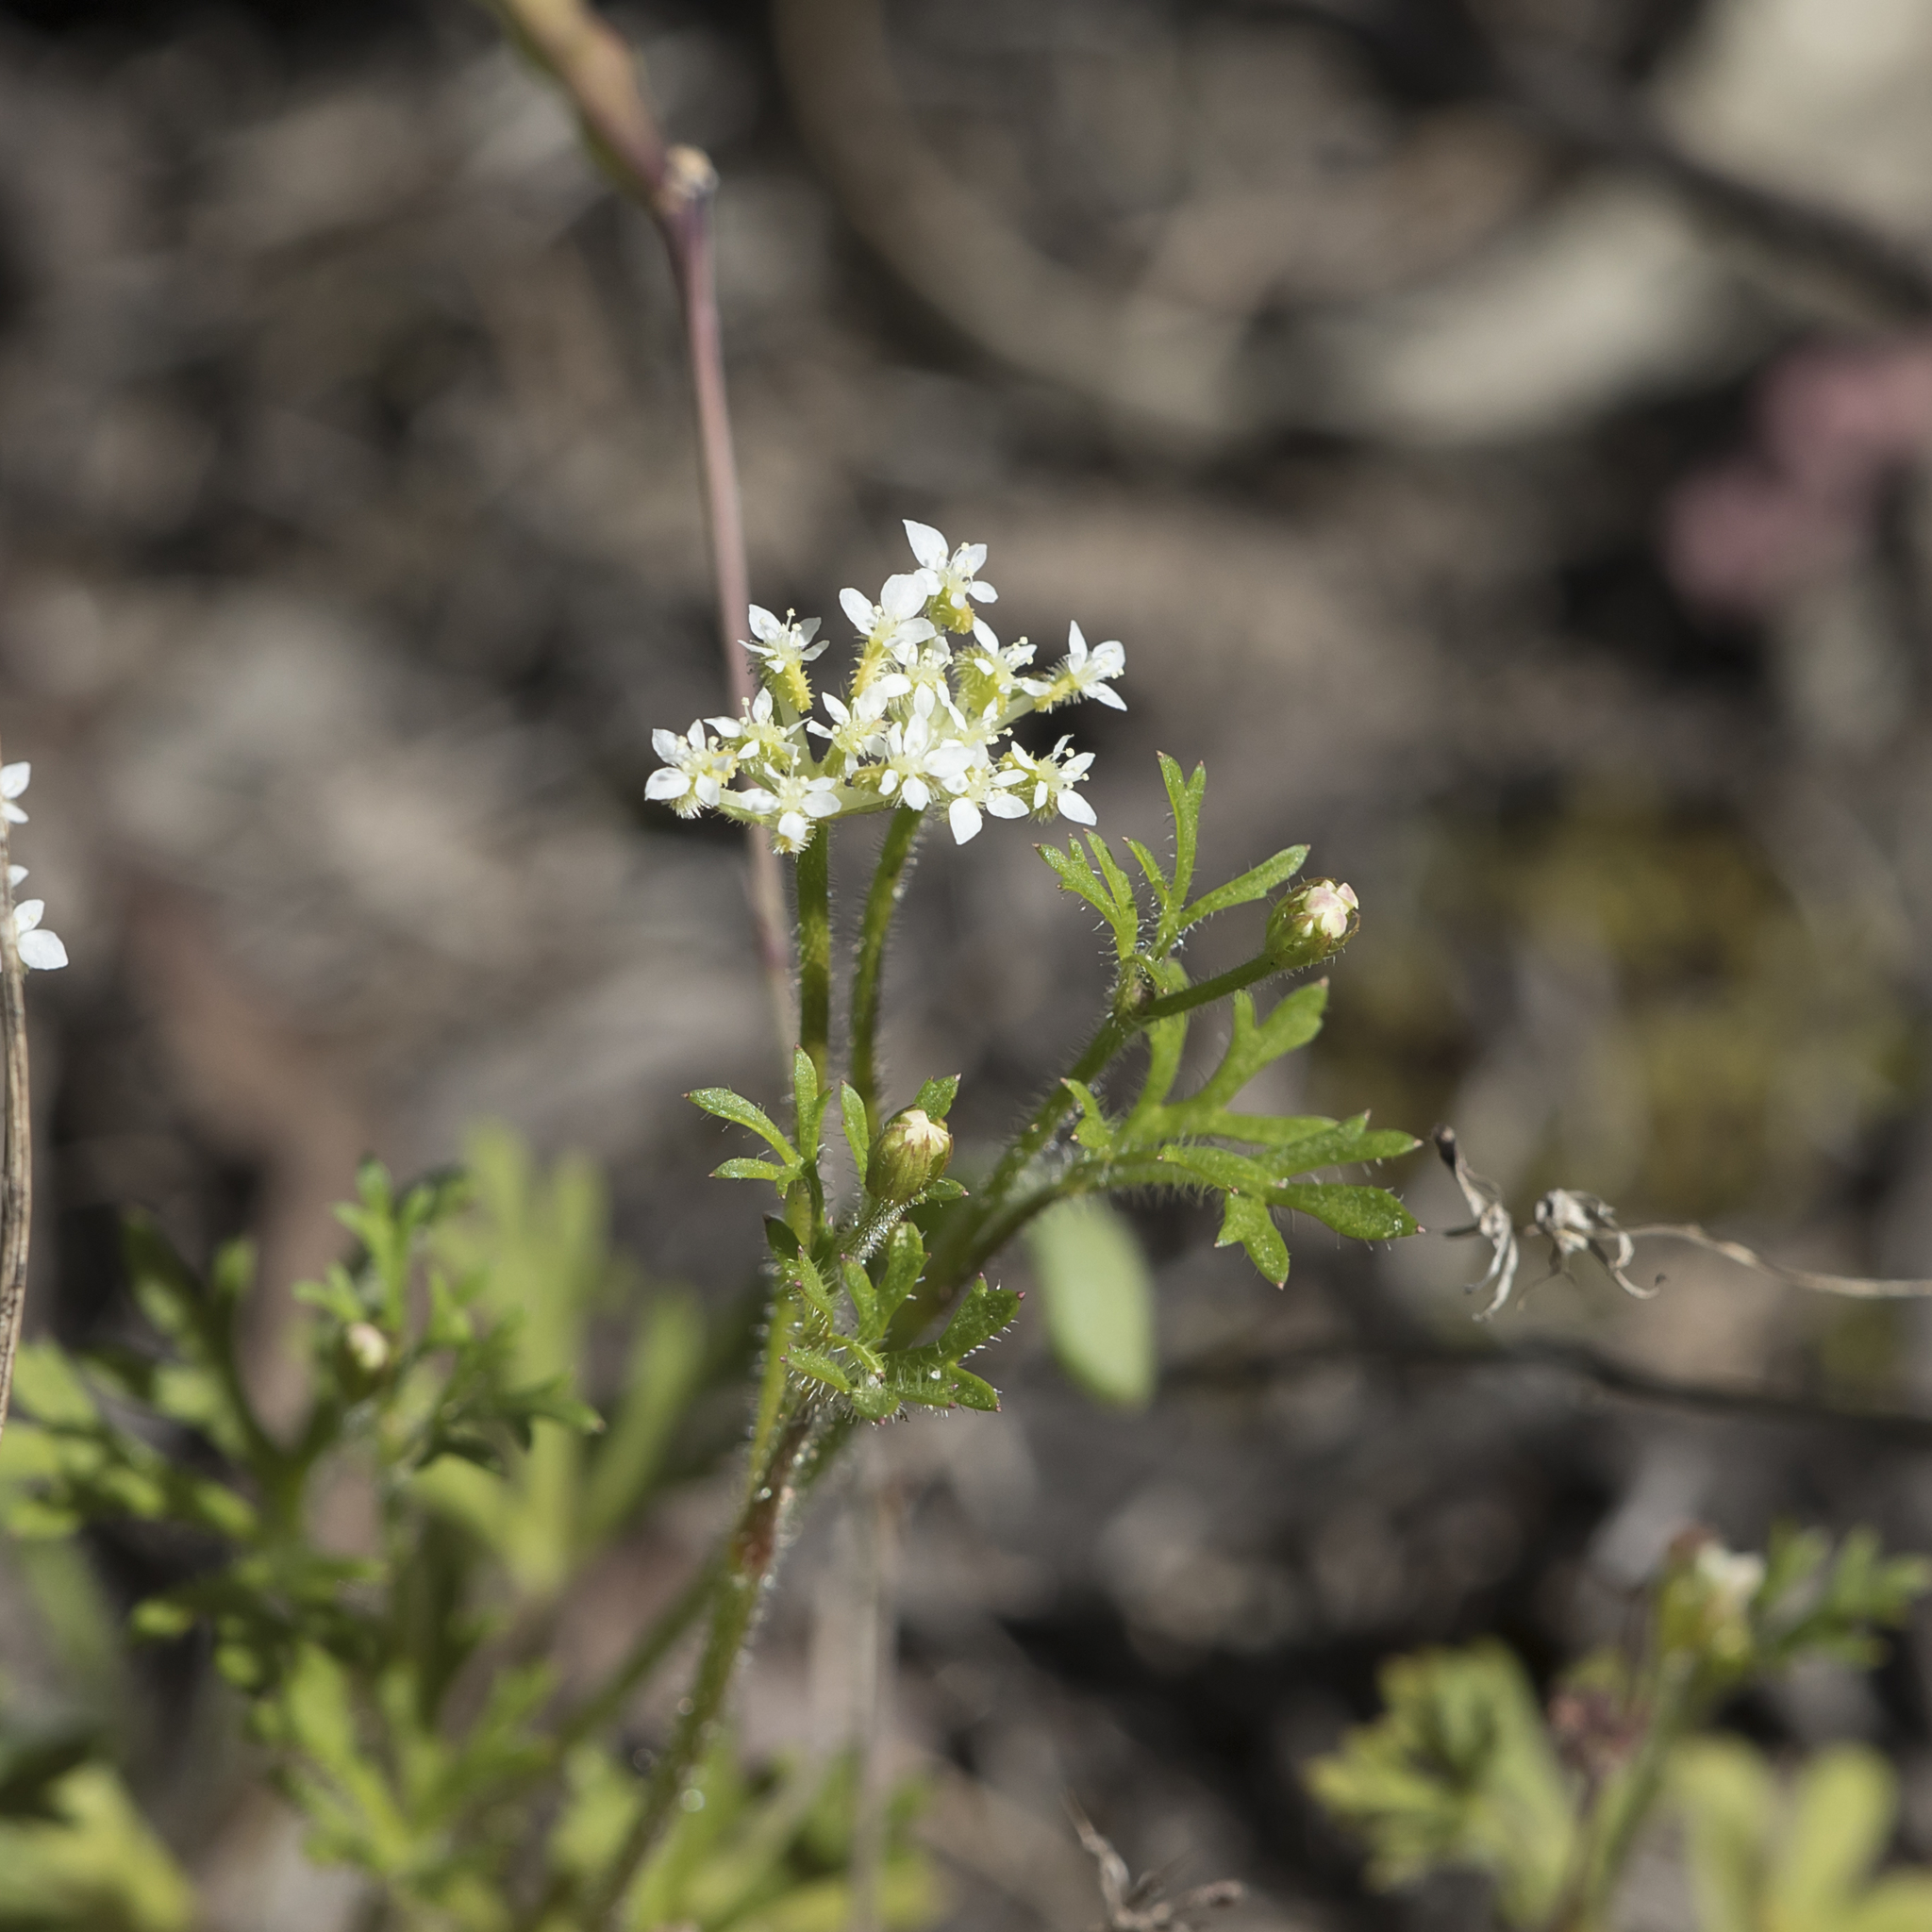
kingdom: Plantae
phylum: Tracheophyta
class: Magnoliopsida
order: Apiales
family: Araliaceae
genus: Trachymene
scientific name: Trachymene pilosa
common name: Dwarf trachymene
